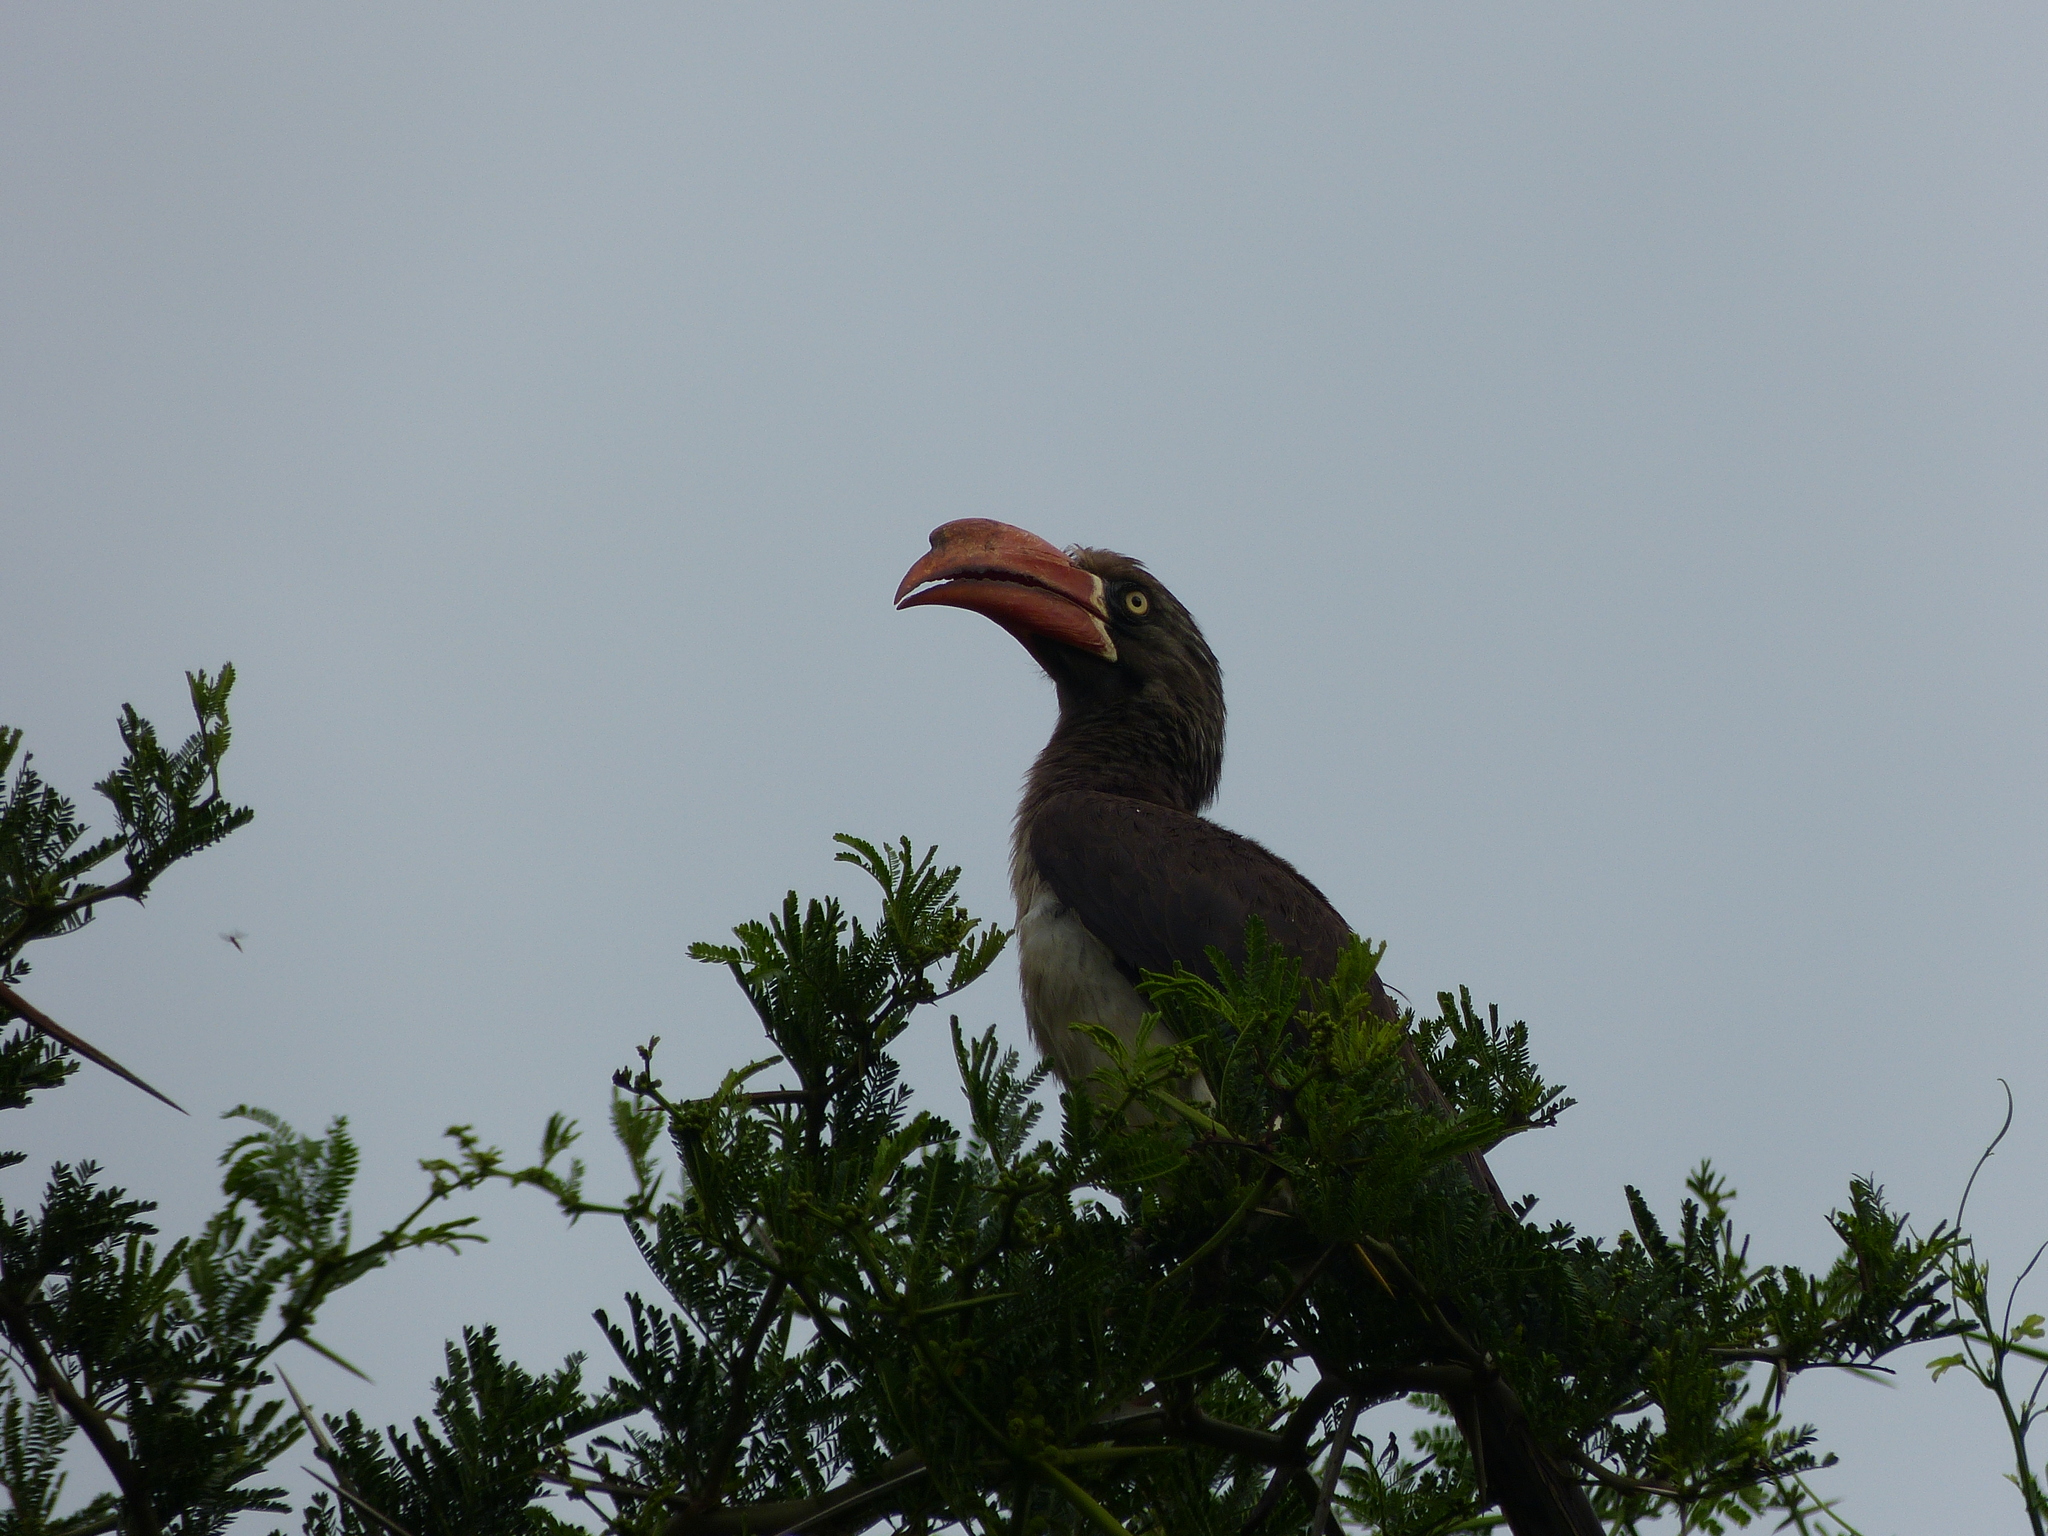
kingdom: Animalia
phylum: Chordata
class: Aves
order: Bucerotiformes
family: Bucerotidae
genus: Lophoceros
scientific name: Lophoceros alboterminatus
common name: Crowned hornbill
